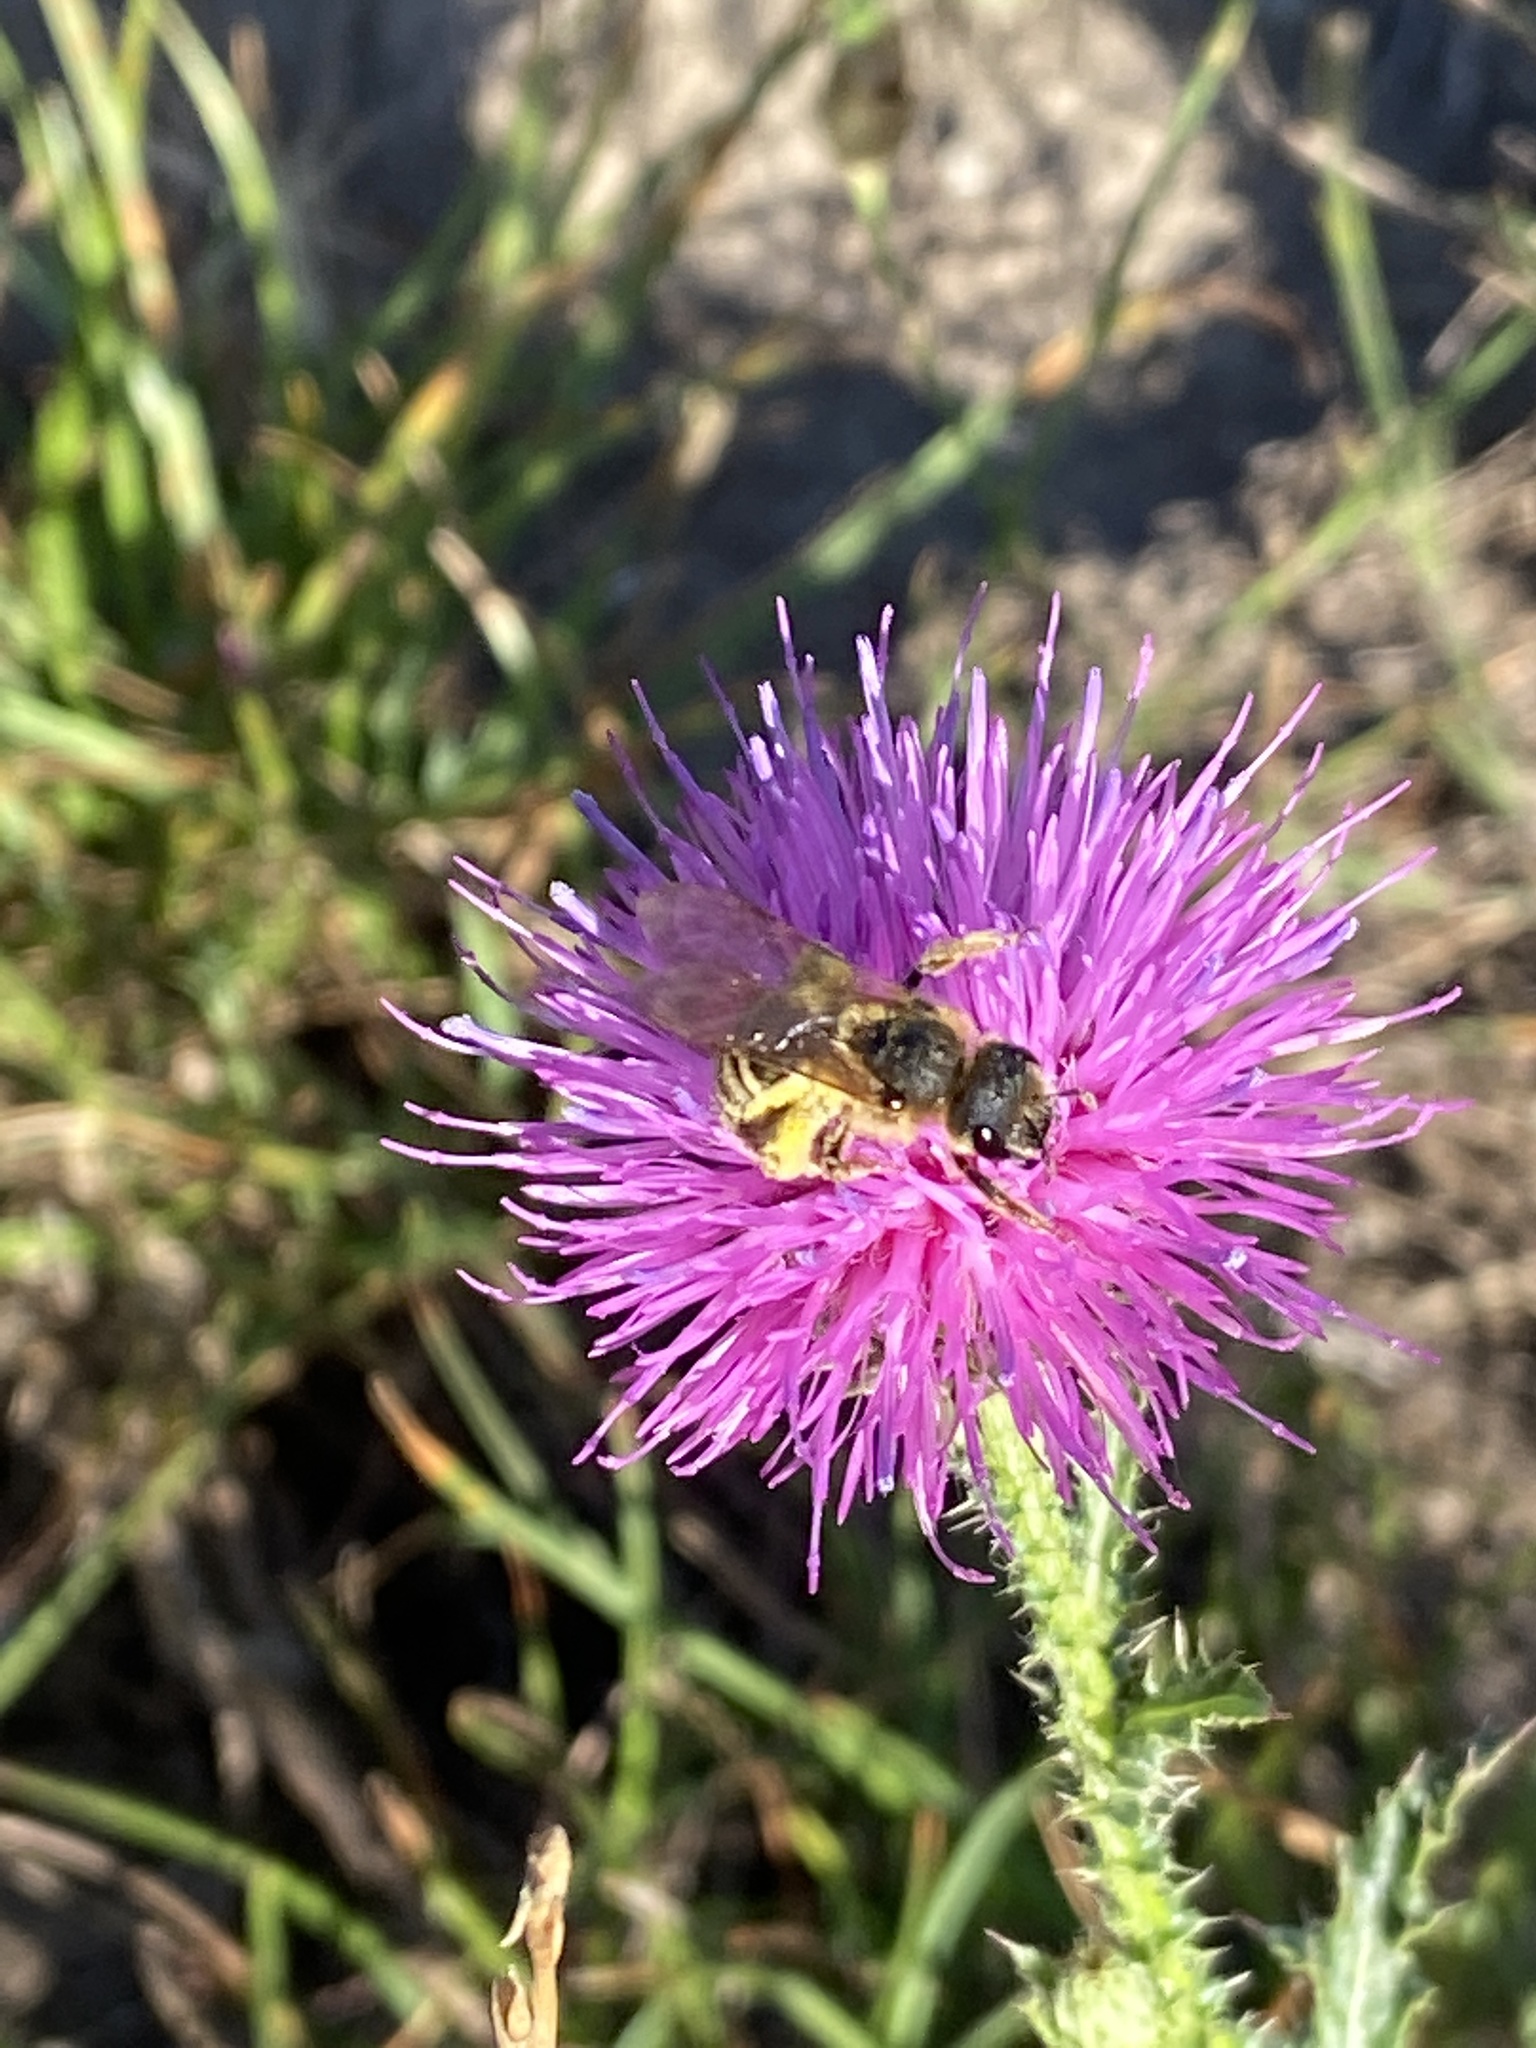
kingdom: Animalia
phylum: Arthropoda
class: Insecta
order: Hymenoptera
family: Halictidae
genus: Halictus
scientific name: Halictus scabiosae
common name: Great banded furrow bee
